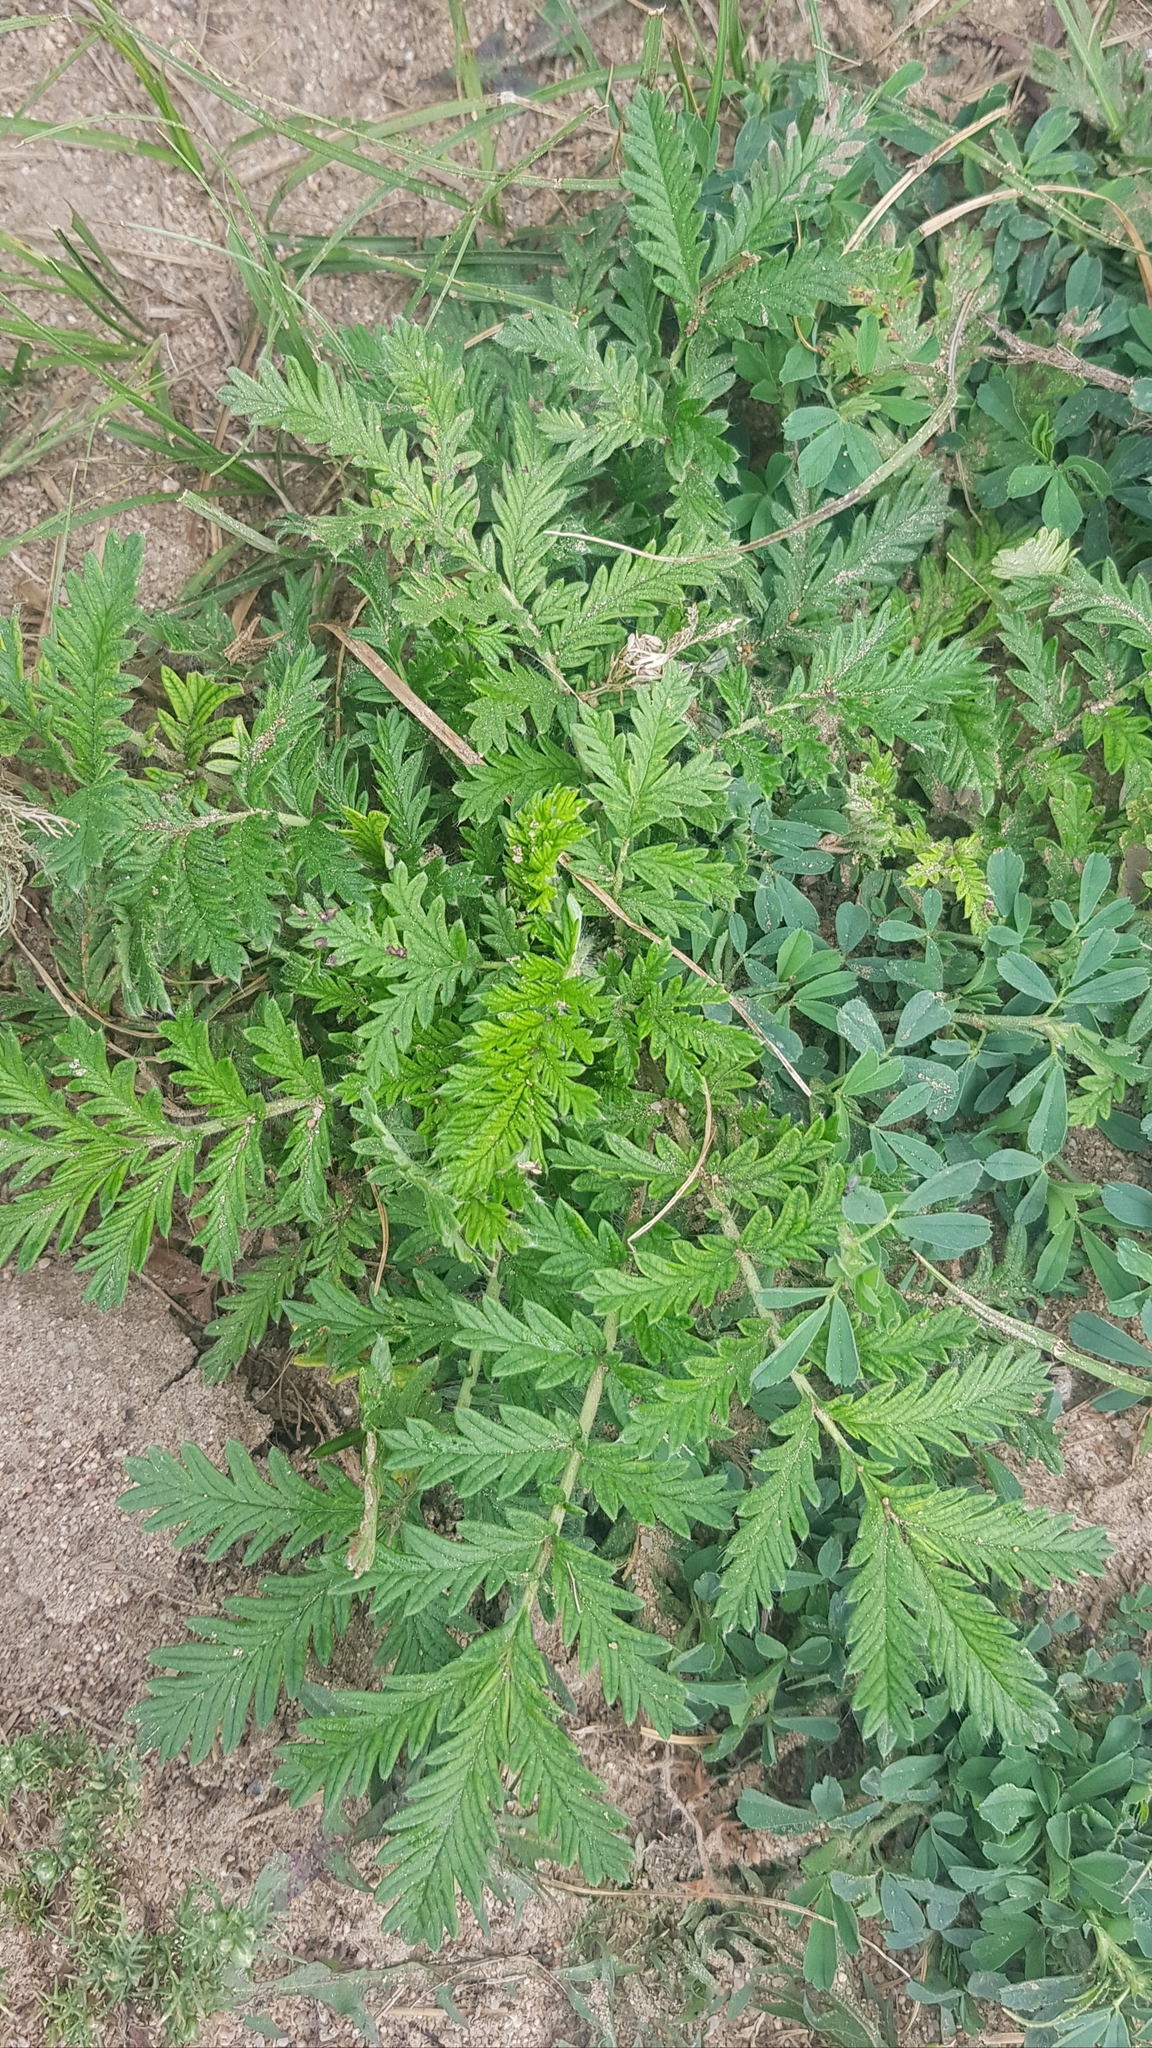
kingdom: Plantae
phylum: Tracheophyta
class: Magnoliopsida
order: Rosales
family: Rosaceae
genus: Potentilla
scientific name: Potentilla tanacetifolia
